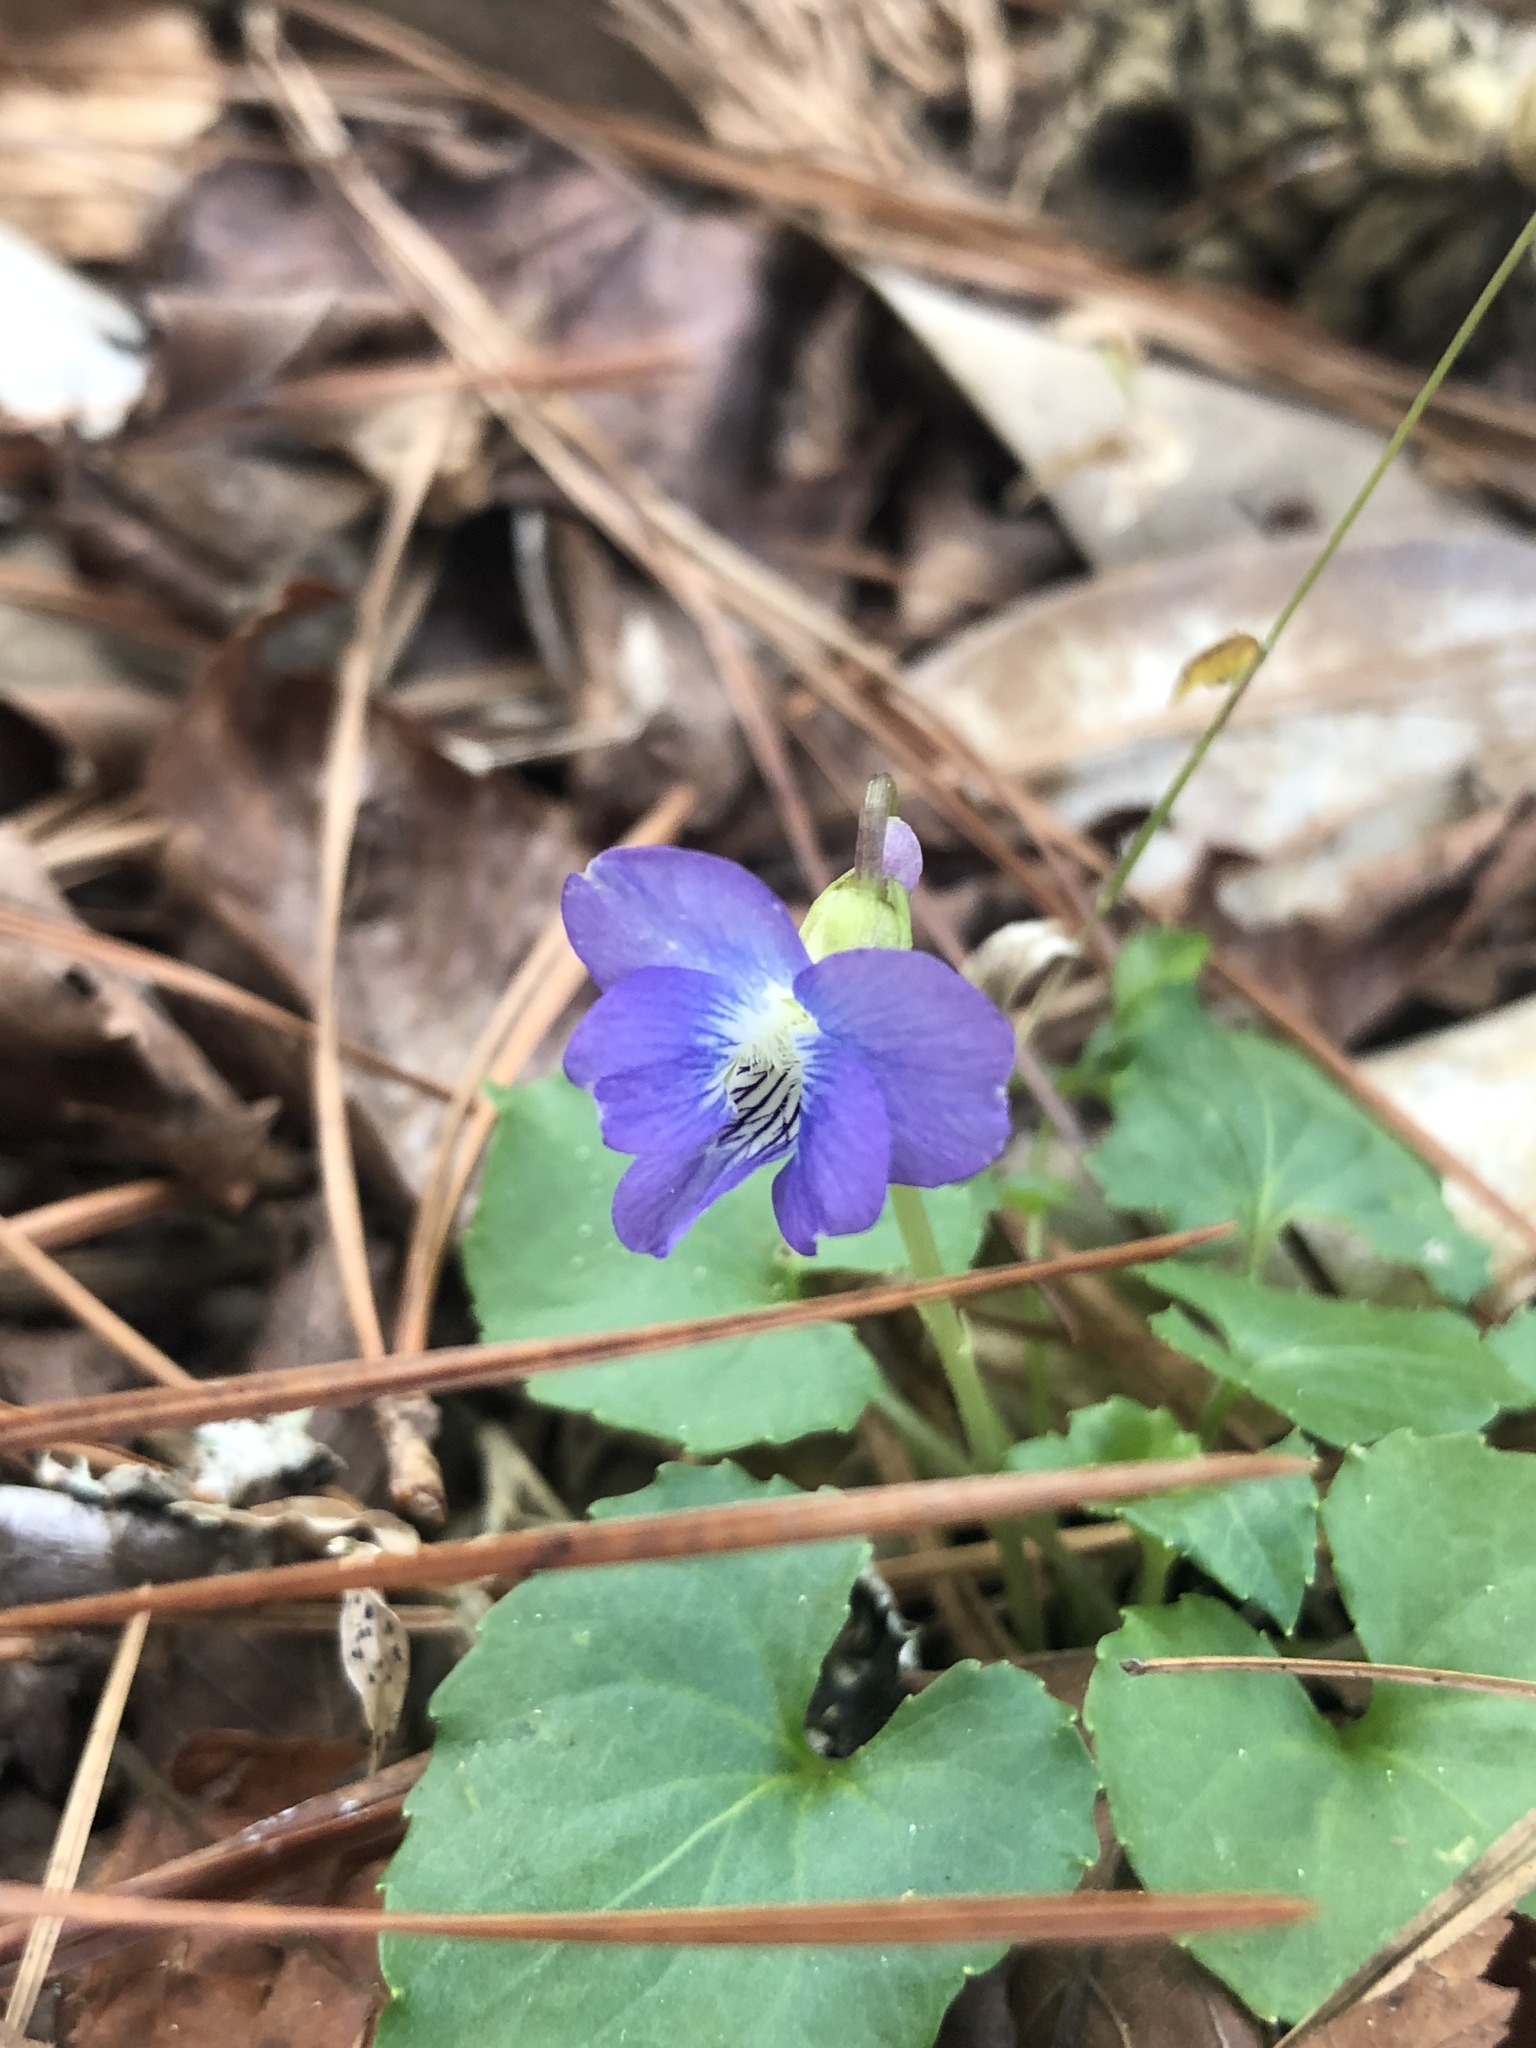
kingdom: Plantae
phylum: Tracheophyta
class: Magnoliopsida
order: Malpighiales
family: Violaceae
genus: Viola
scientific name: Viola sororia
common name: Dooryard violet
